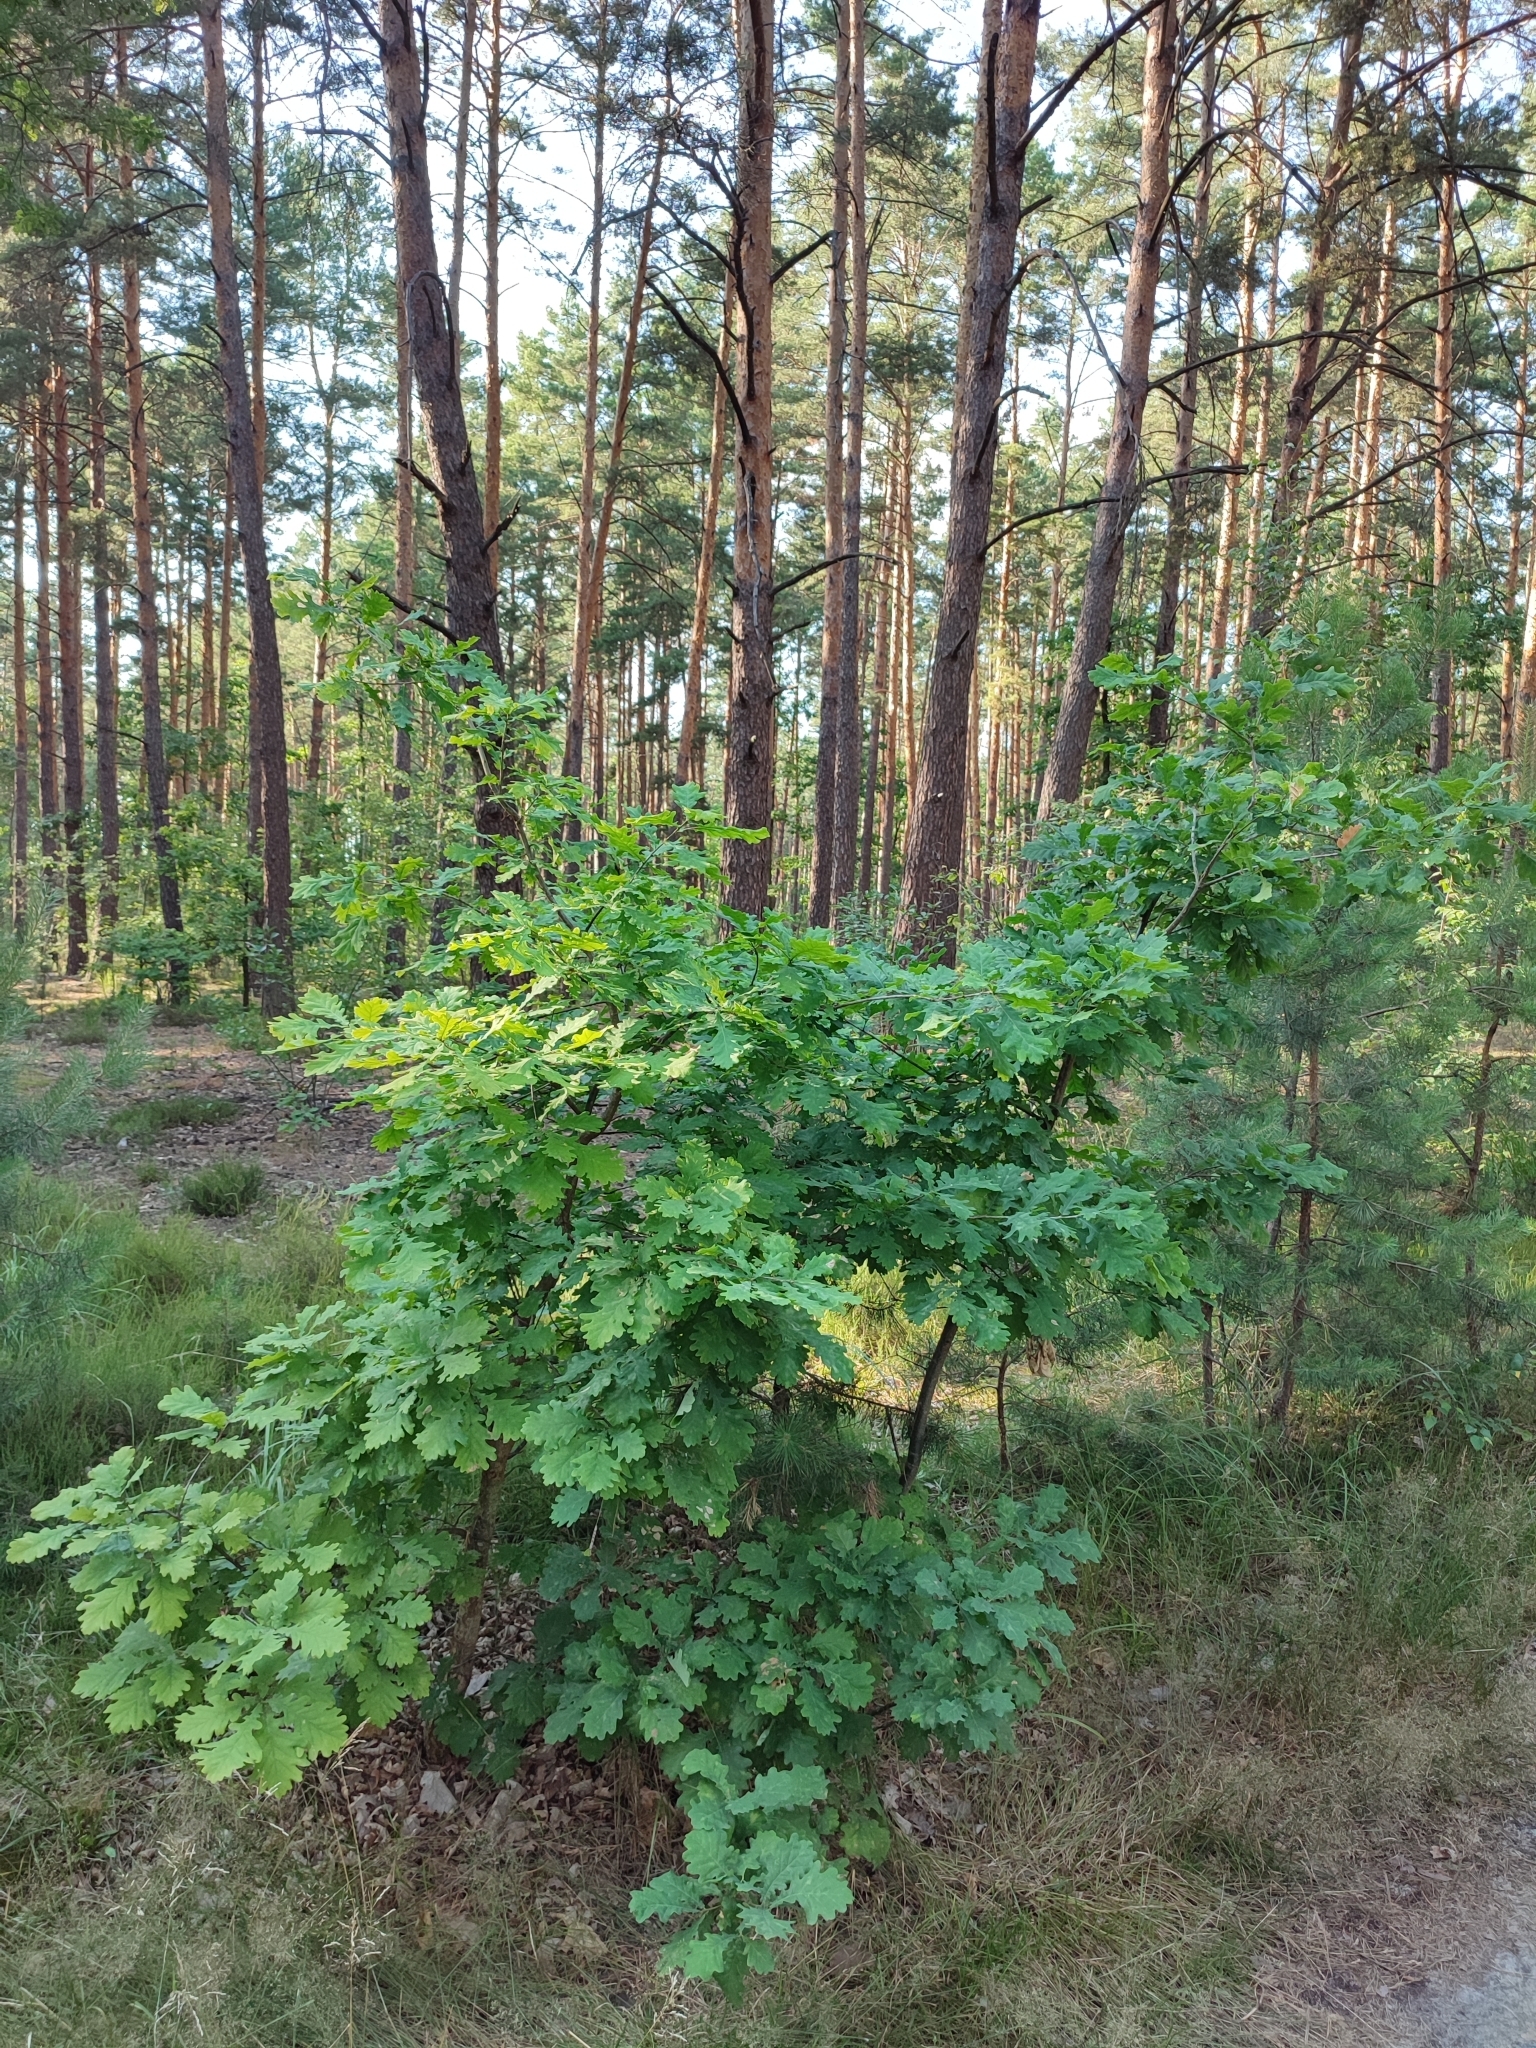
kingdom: Plantae
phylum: Tracheophyta
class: Magnoliopsida
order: Fagales
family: Fagaceae
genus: Quercus
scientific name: Quercus robur
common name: Pedunculate oak
